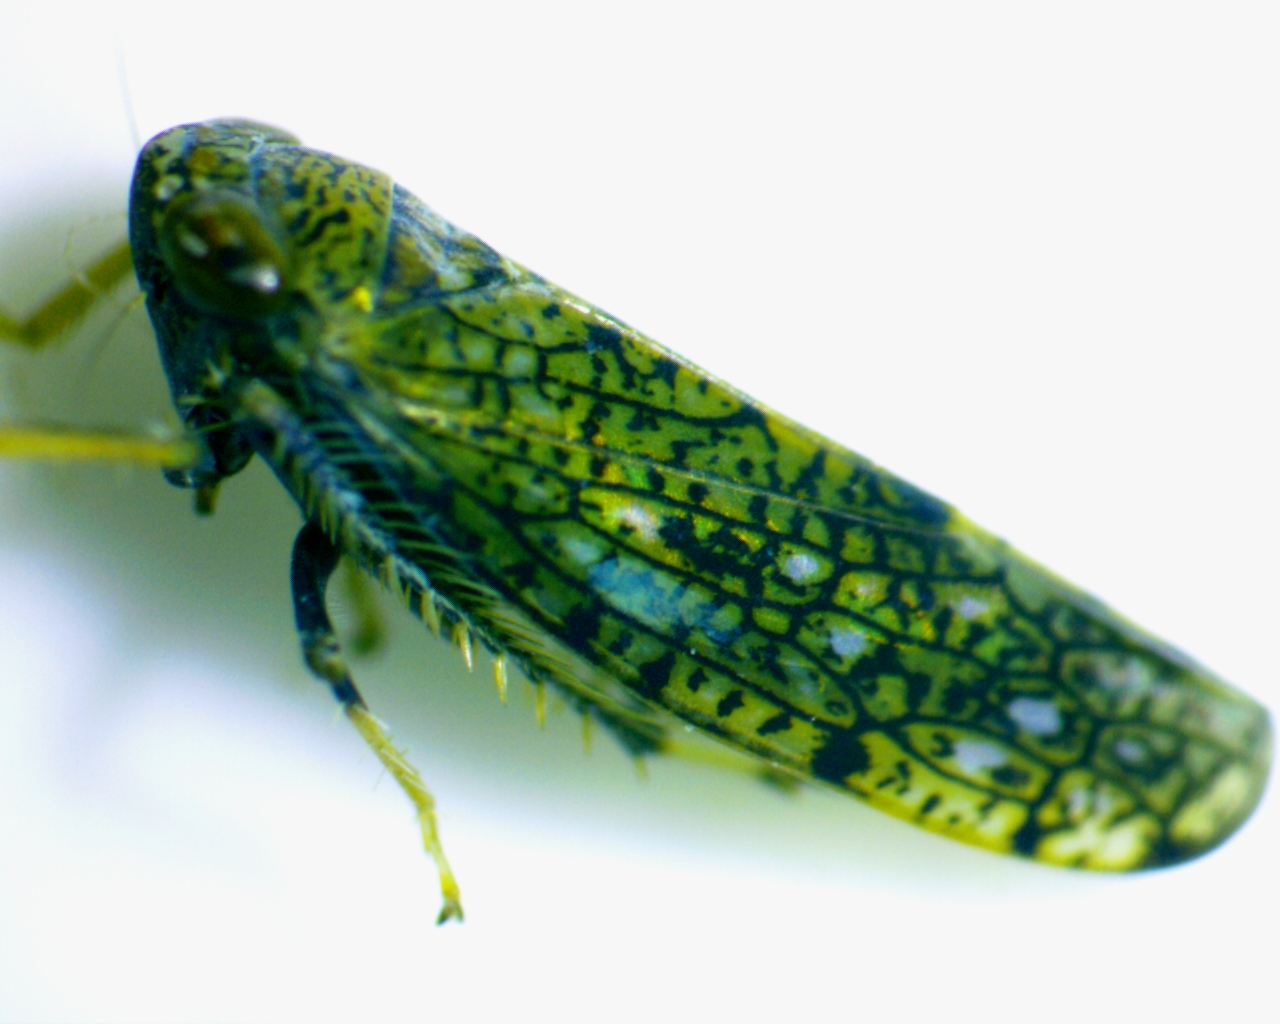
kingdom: Animalia
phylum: Arthropoda
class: Insecta
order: Hemiptera
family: Cicadellidae
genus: Orientus
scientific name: Orientus ishidae
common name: Japanese leafhopper
